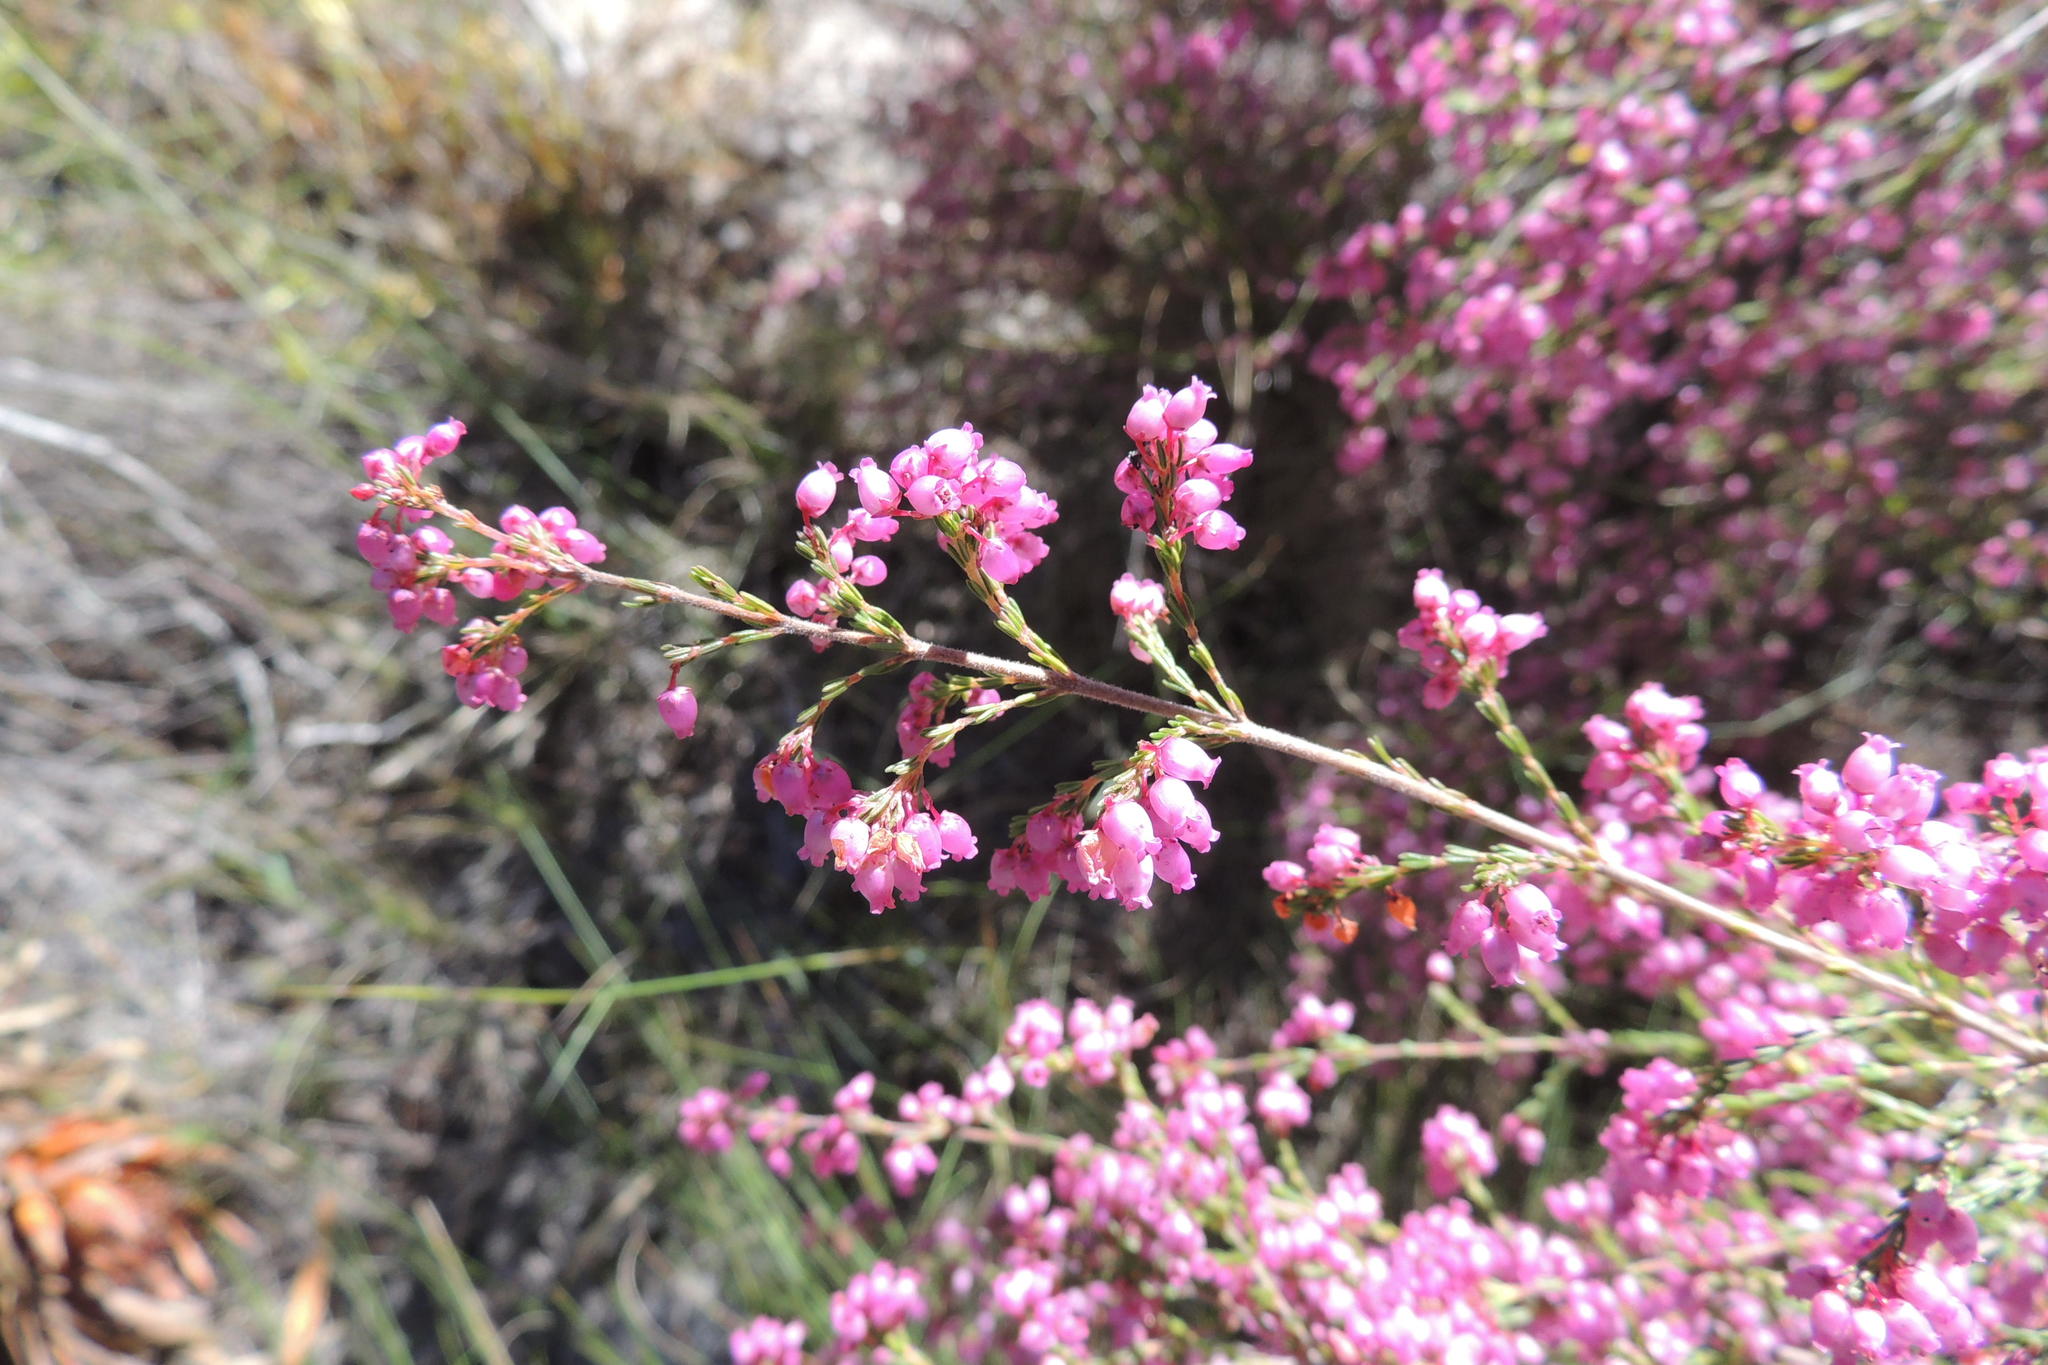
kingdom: Plantae
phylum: Tracheophyta
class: Magnoliopsida
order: Ericales
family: Ericaceae
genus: Erica
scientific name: Erica gracilis
